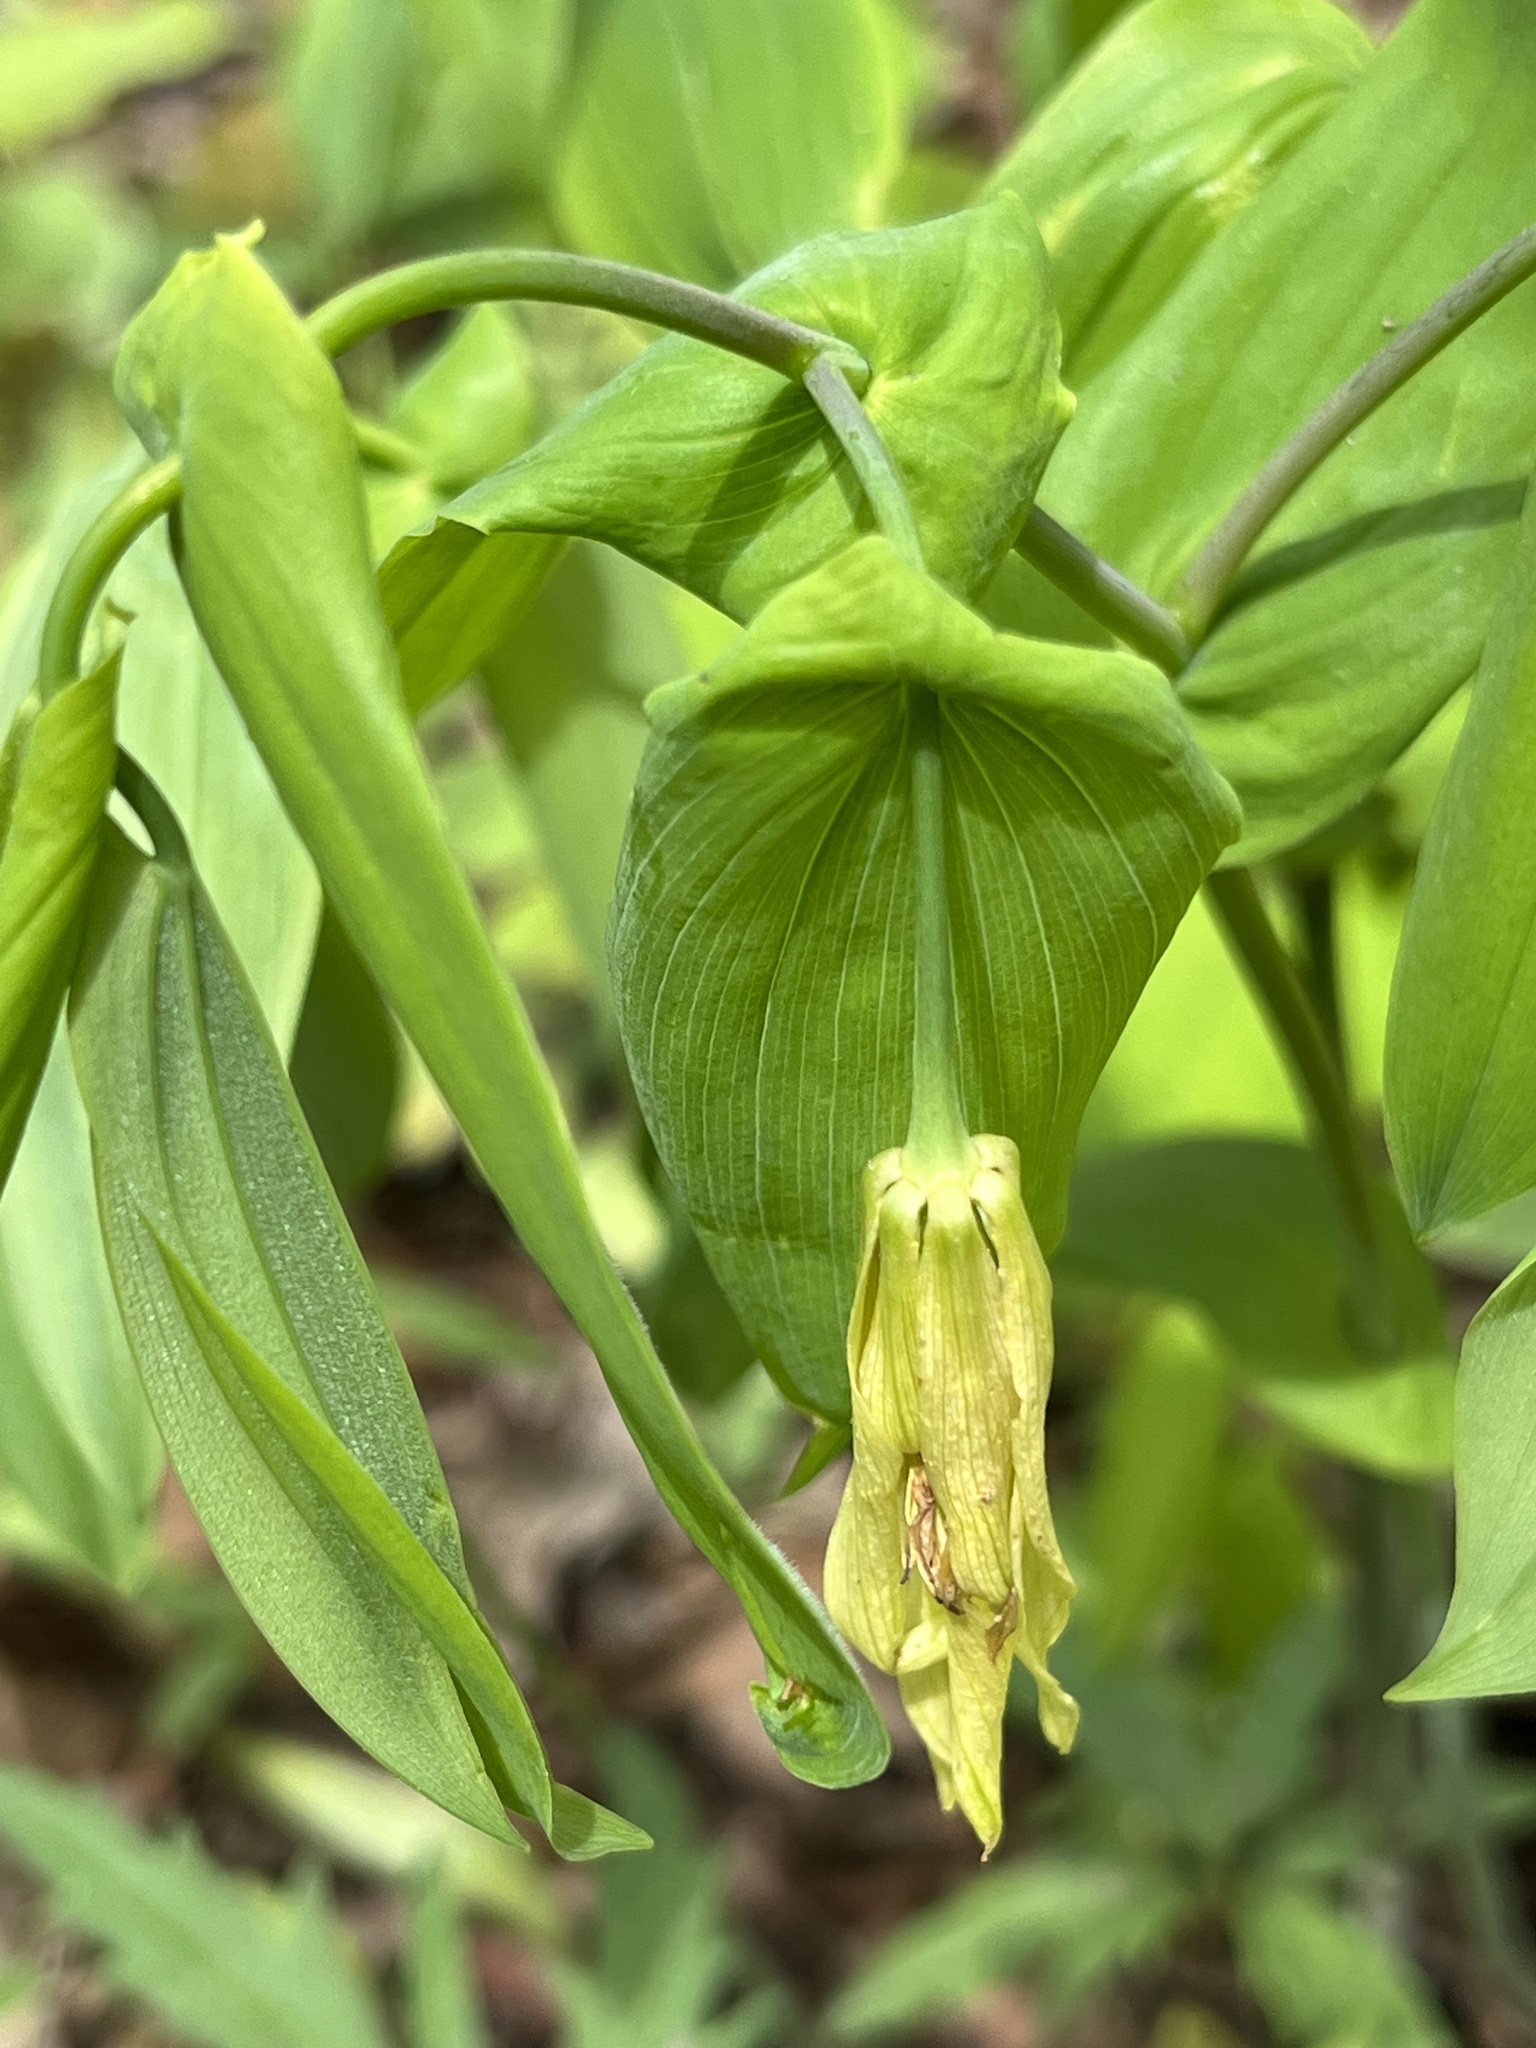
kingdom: Plantae
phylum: Tracheophyta
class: Liliopsida
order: Liliales
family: Colchicaceae
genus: Uvularia
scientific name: Uvularia grandiflora
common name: Bellwort
